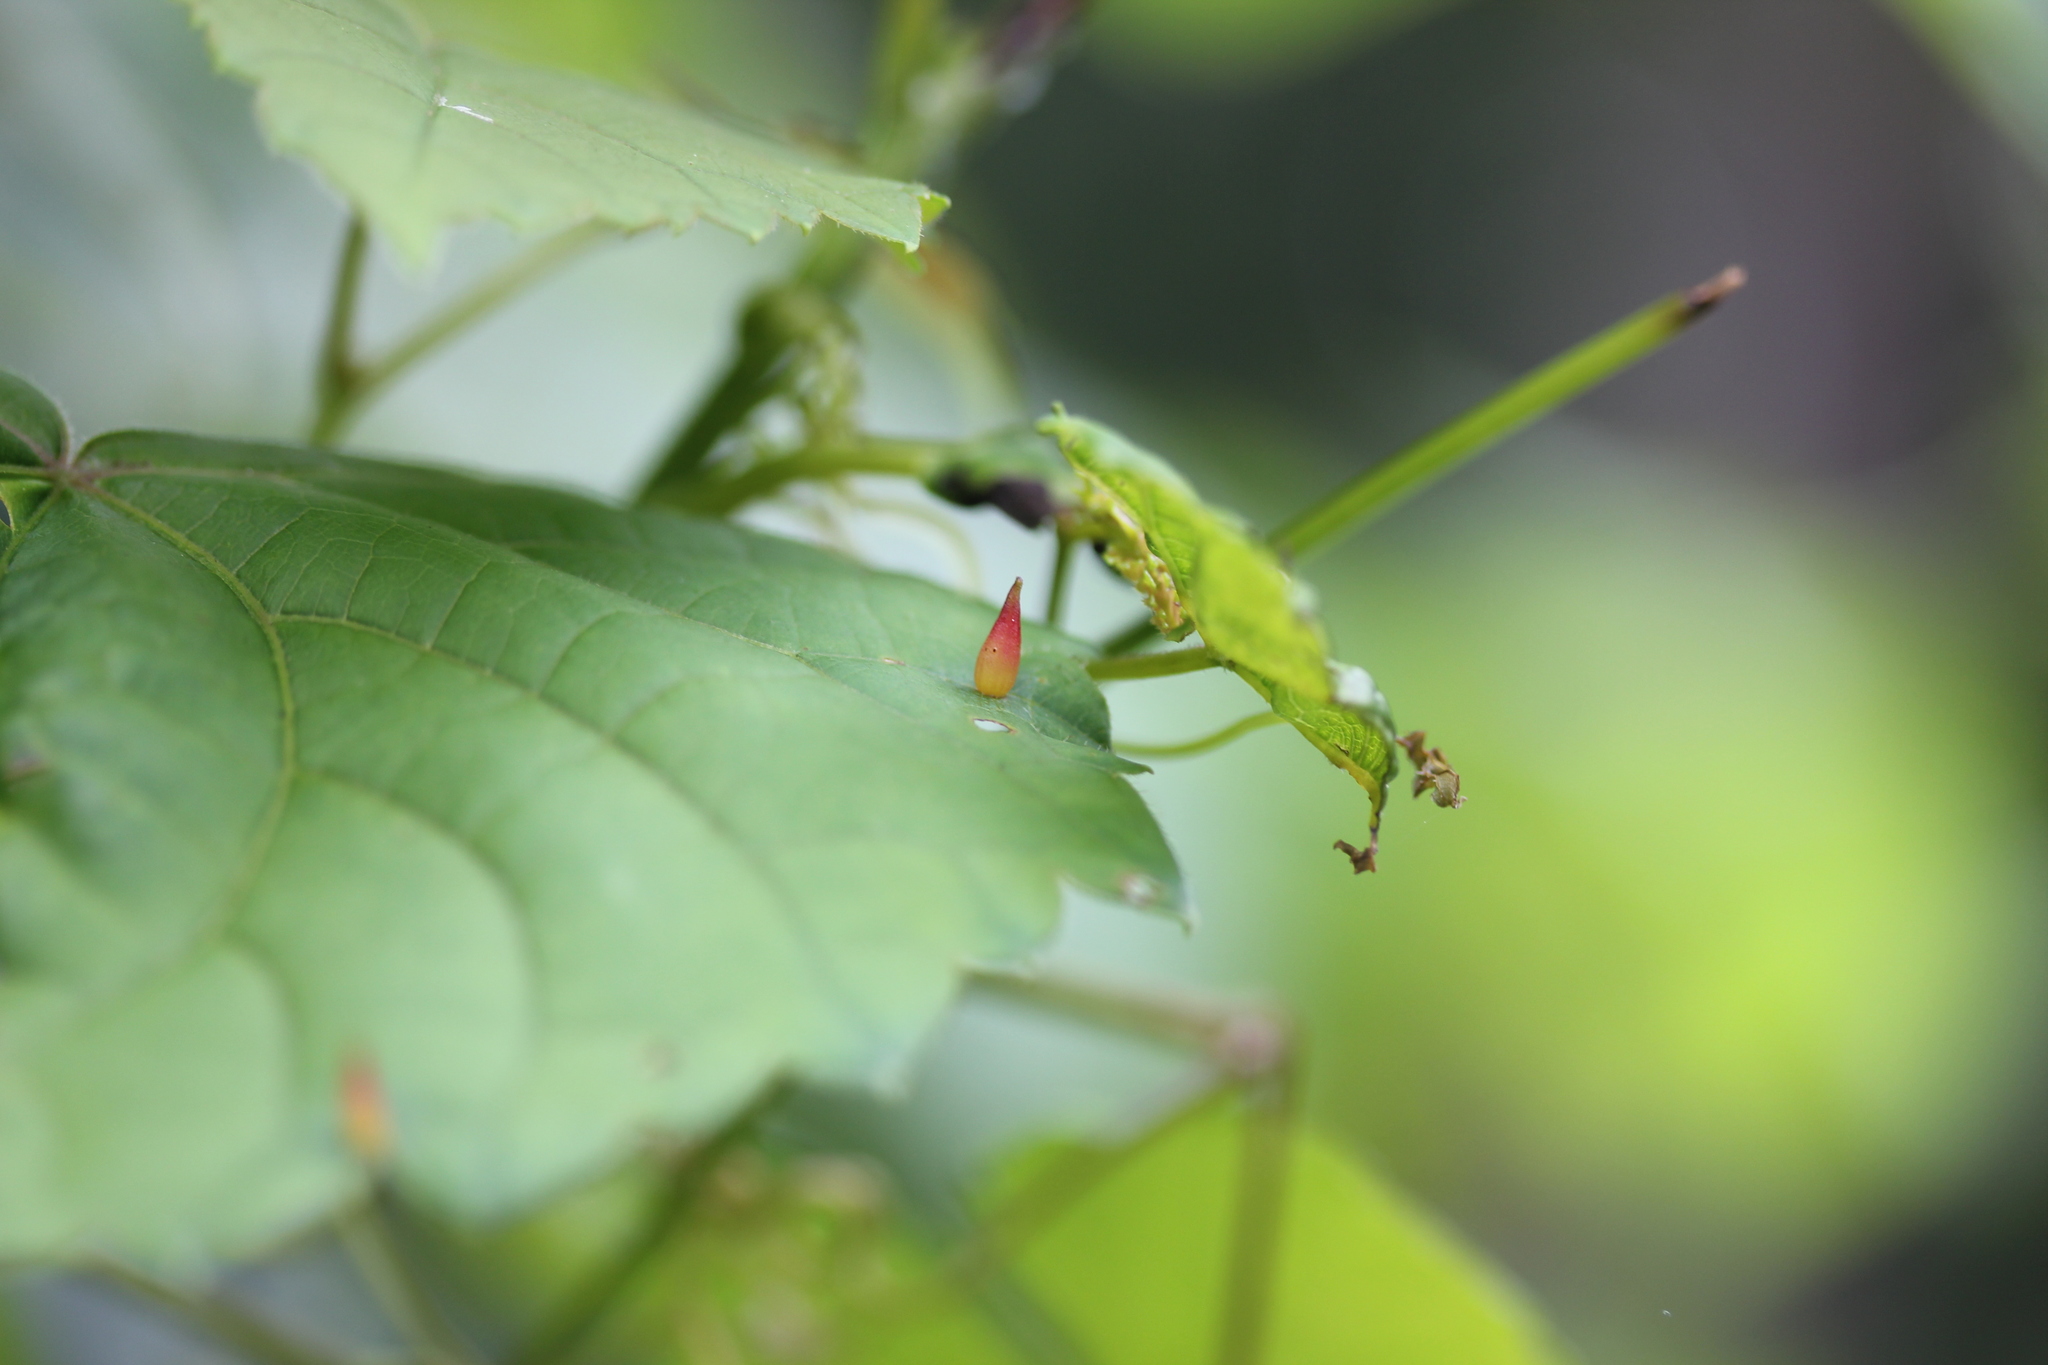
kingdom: Animalia
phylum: Arthropoda
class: Insecta
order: Diptera
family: Cecidomyiidae
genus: Ampelomyia
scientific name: Ampelomyia viticola
